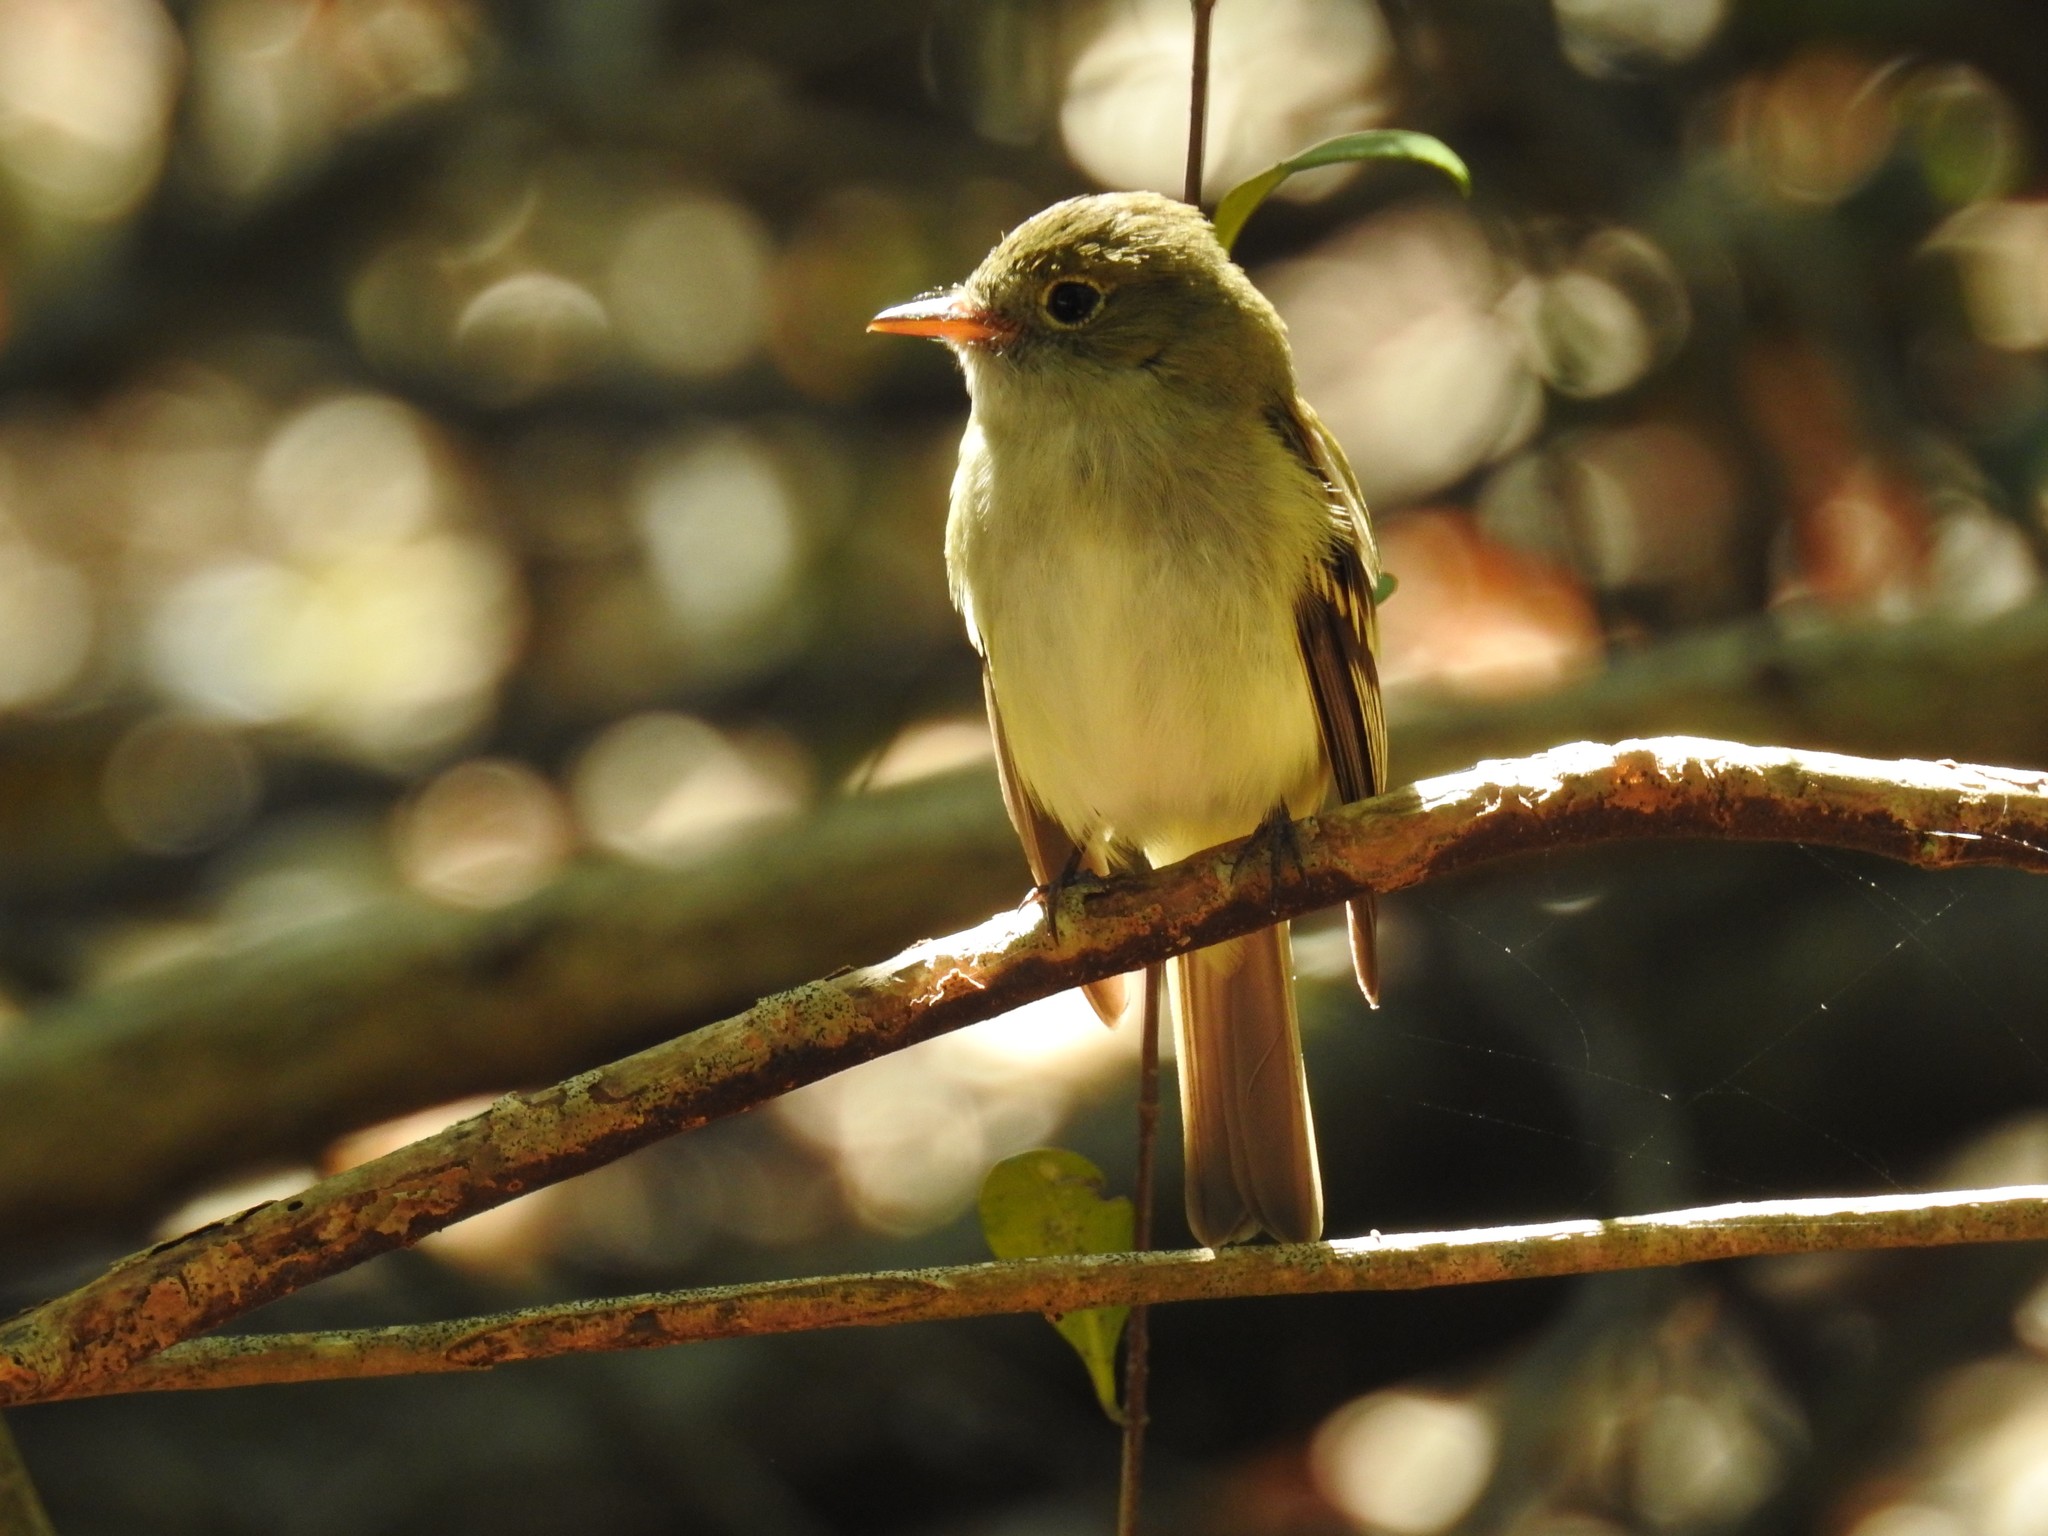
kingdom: Animalia
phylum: Chordata
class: Aves
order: Passeriformes
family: Tyrannidae
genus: Empidonax
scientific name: Empidonax virescens
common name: Acadian flycatcher
